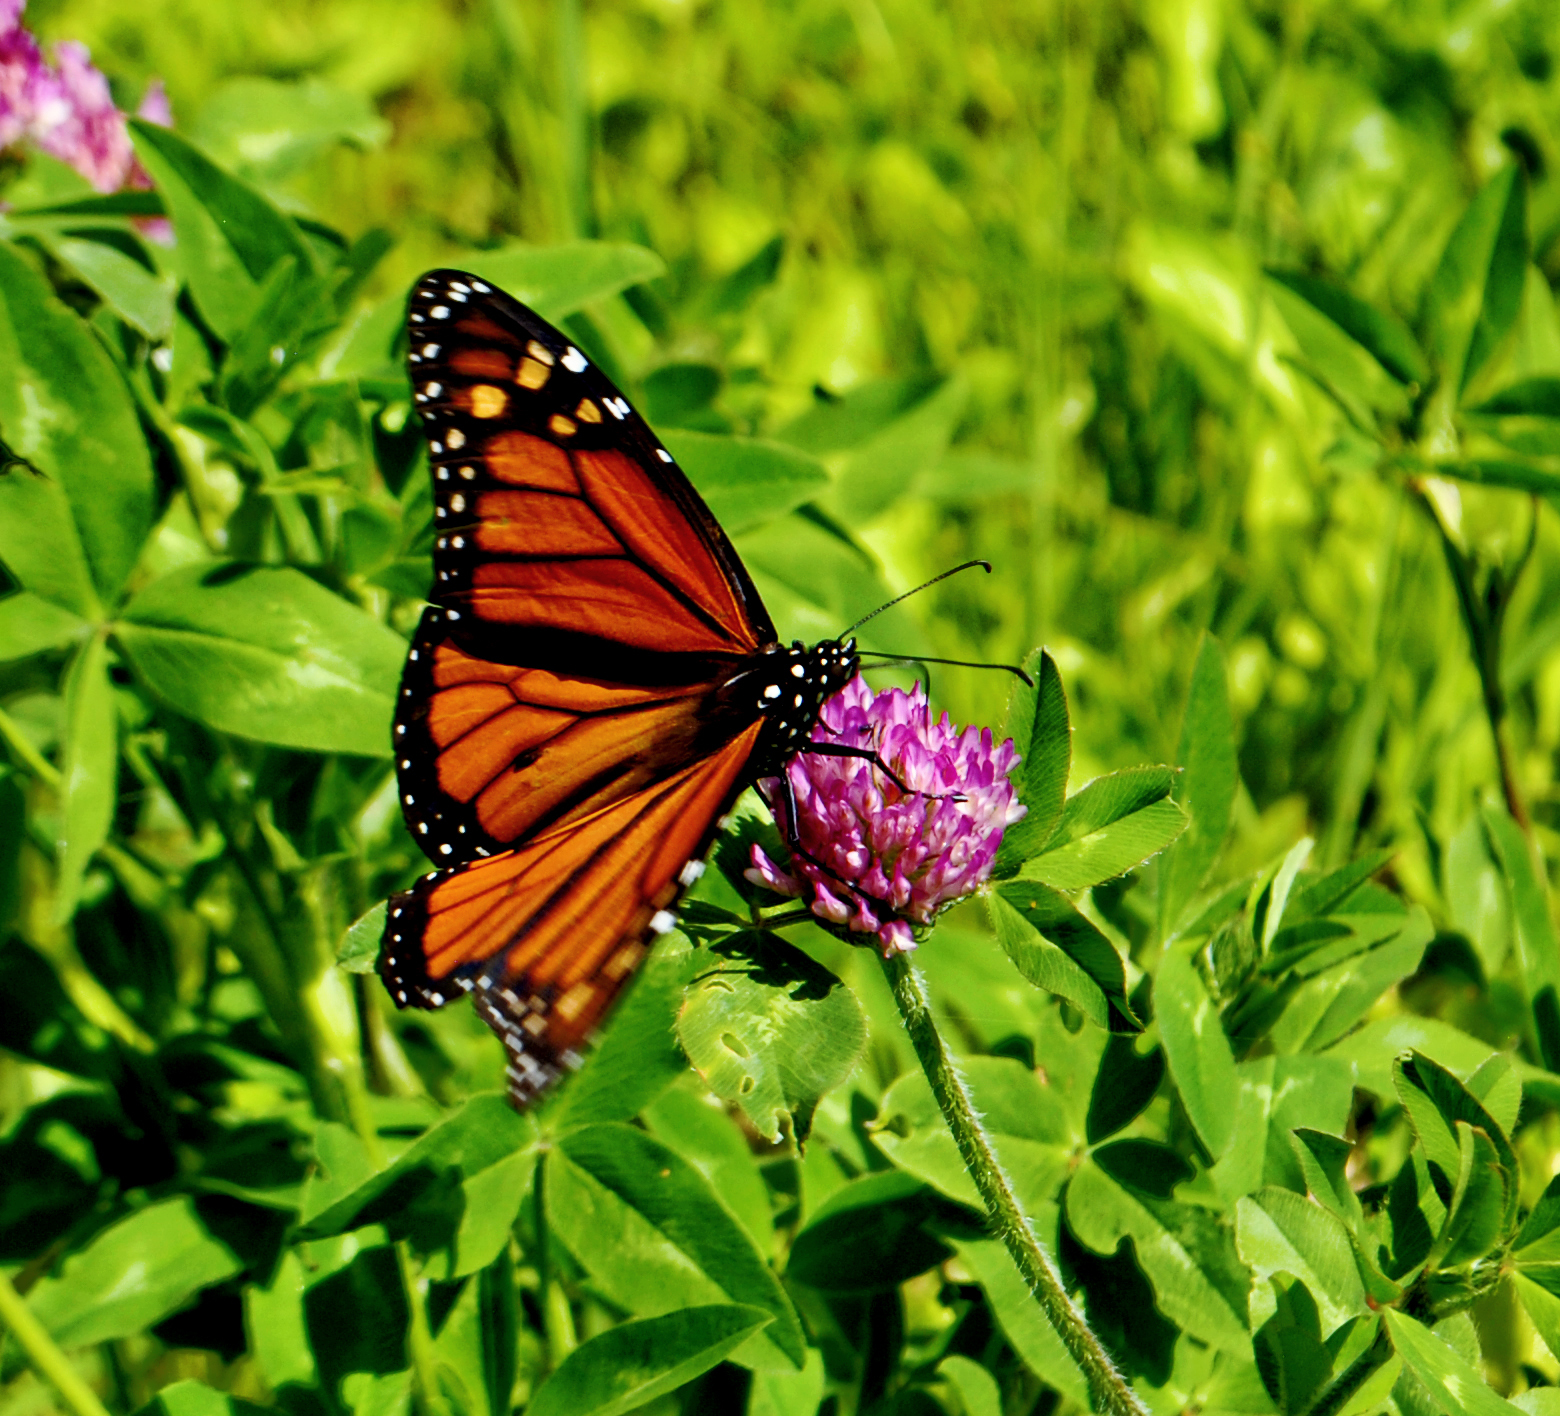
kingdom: Animalia
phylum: Arthropoda
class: Insecta
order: Lepidoptera
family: Nymphalidae
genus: Danaus
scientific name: Danaus plexippus
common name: Monarch
